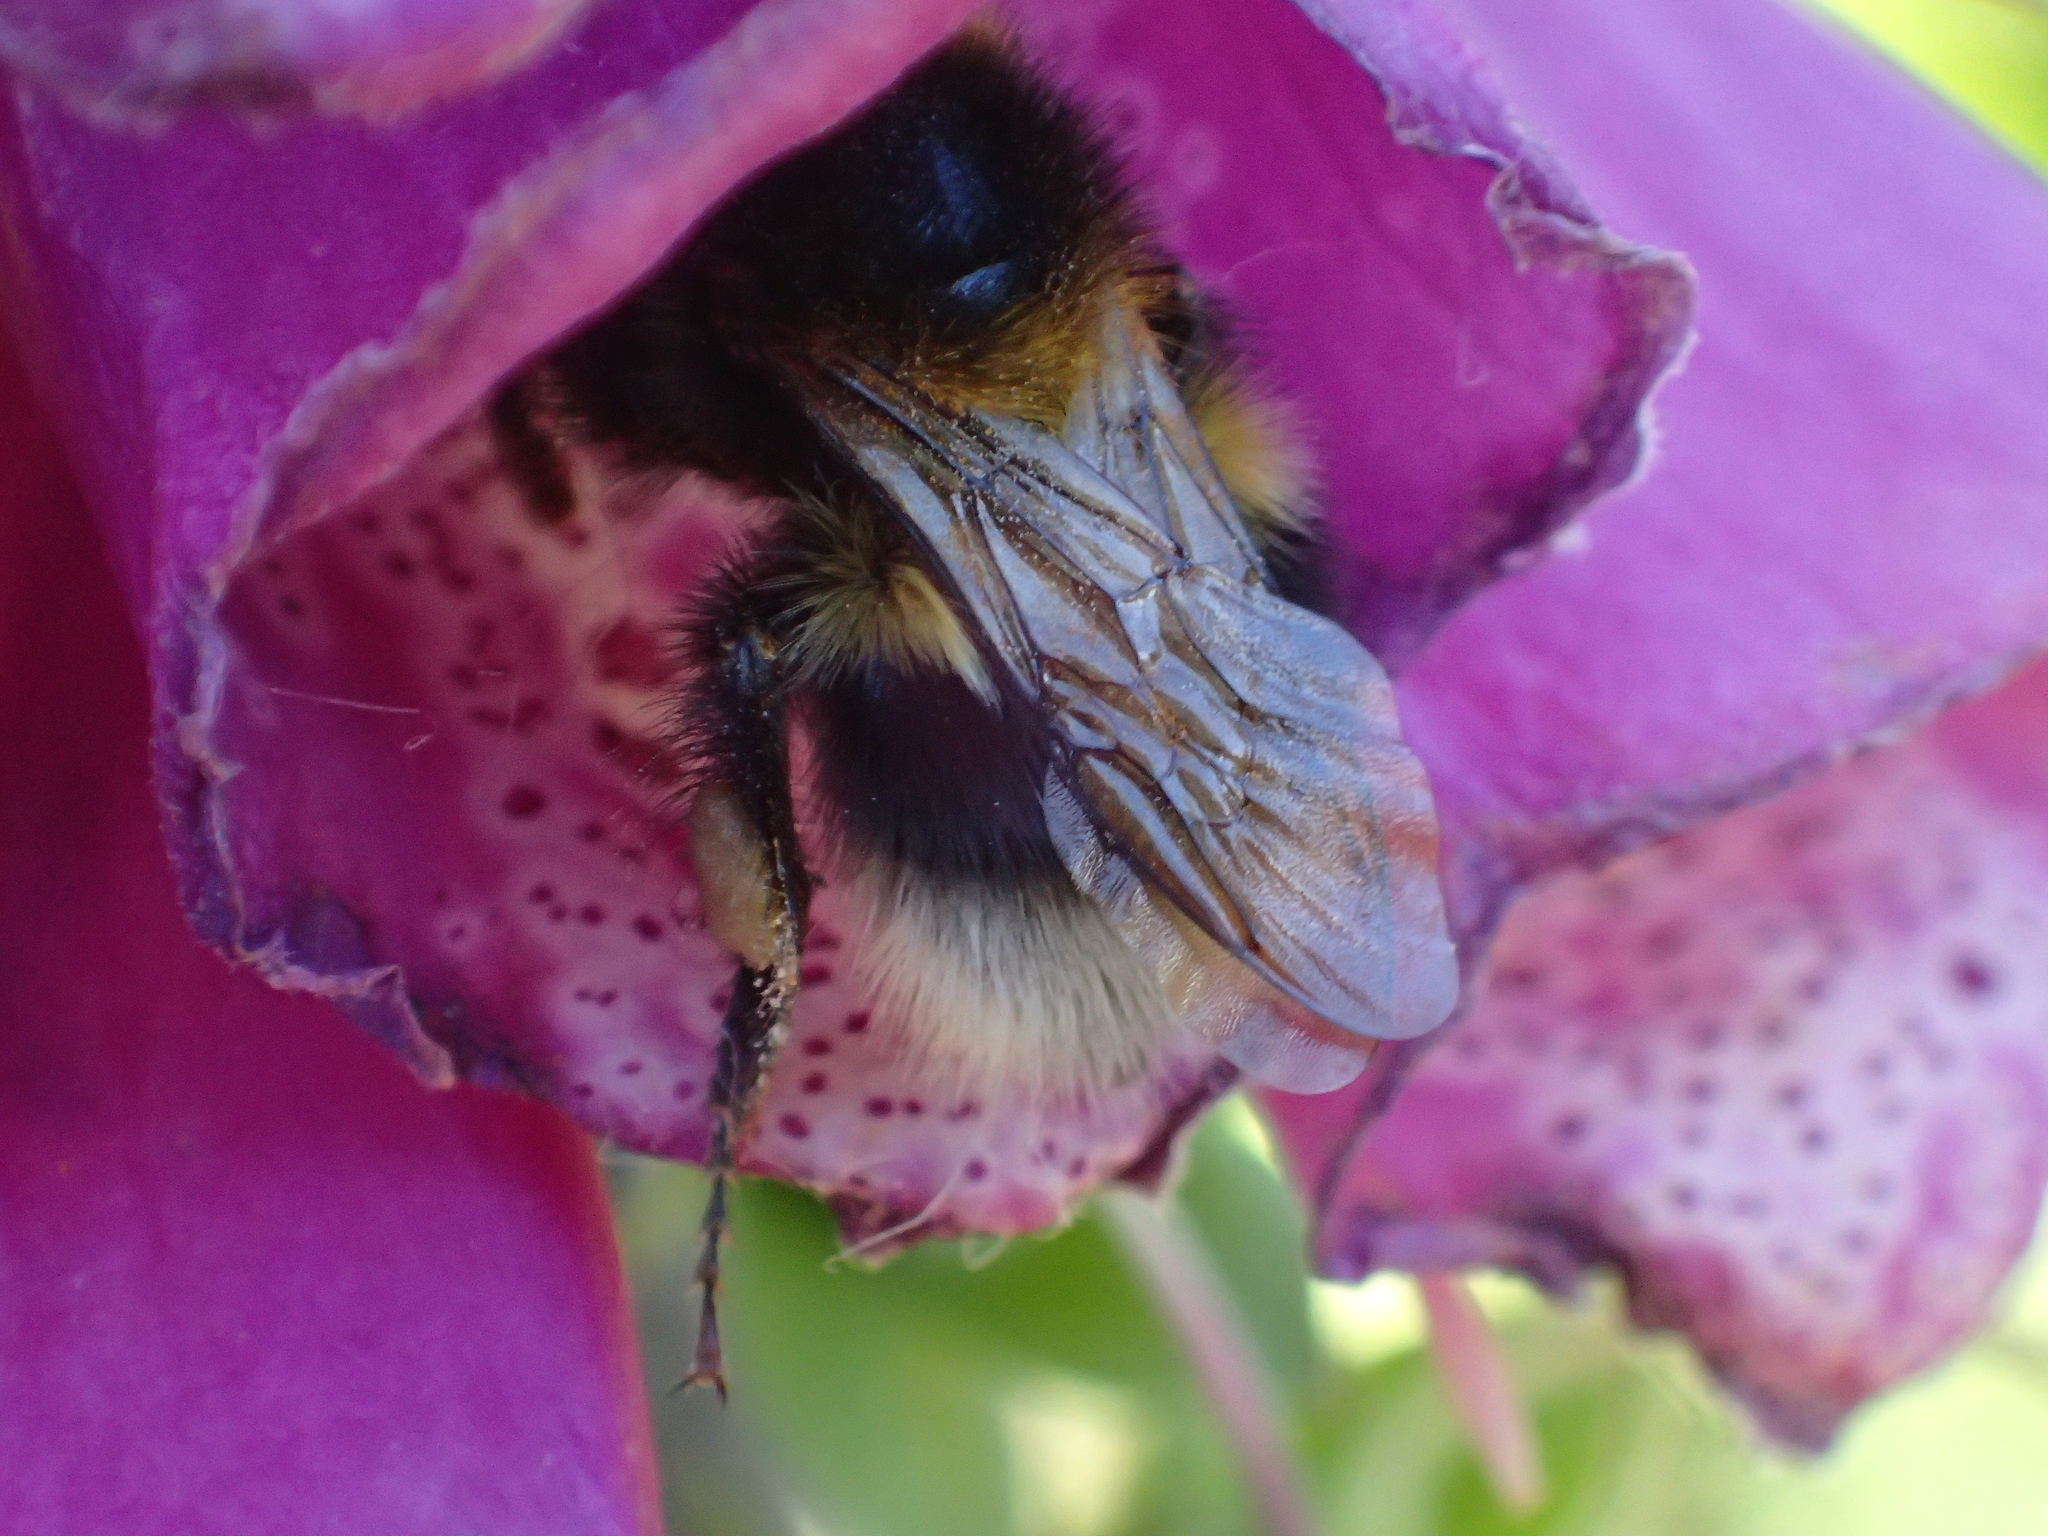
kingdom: Animalia
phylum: Arthropoda
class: Insecta
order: Hymenoptera
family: Apidae
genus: Megabombus
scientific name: Megabombus
